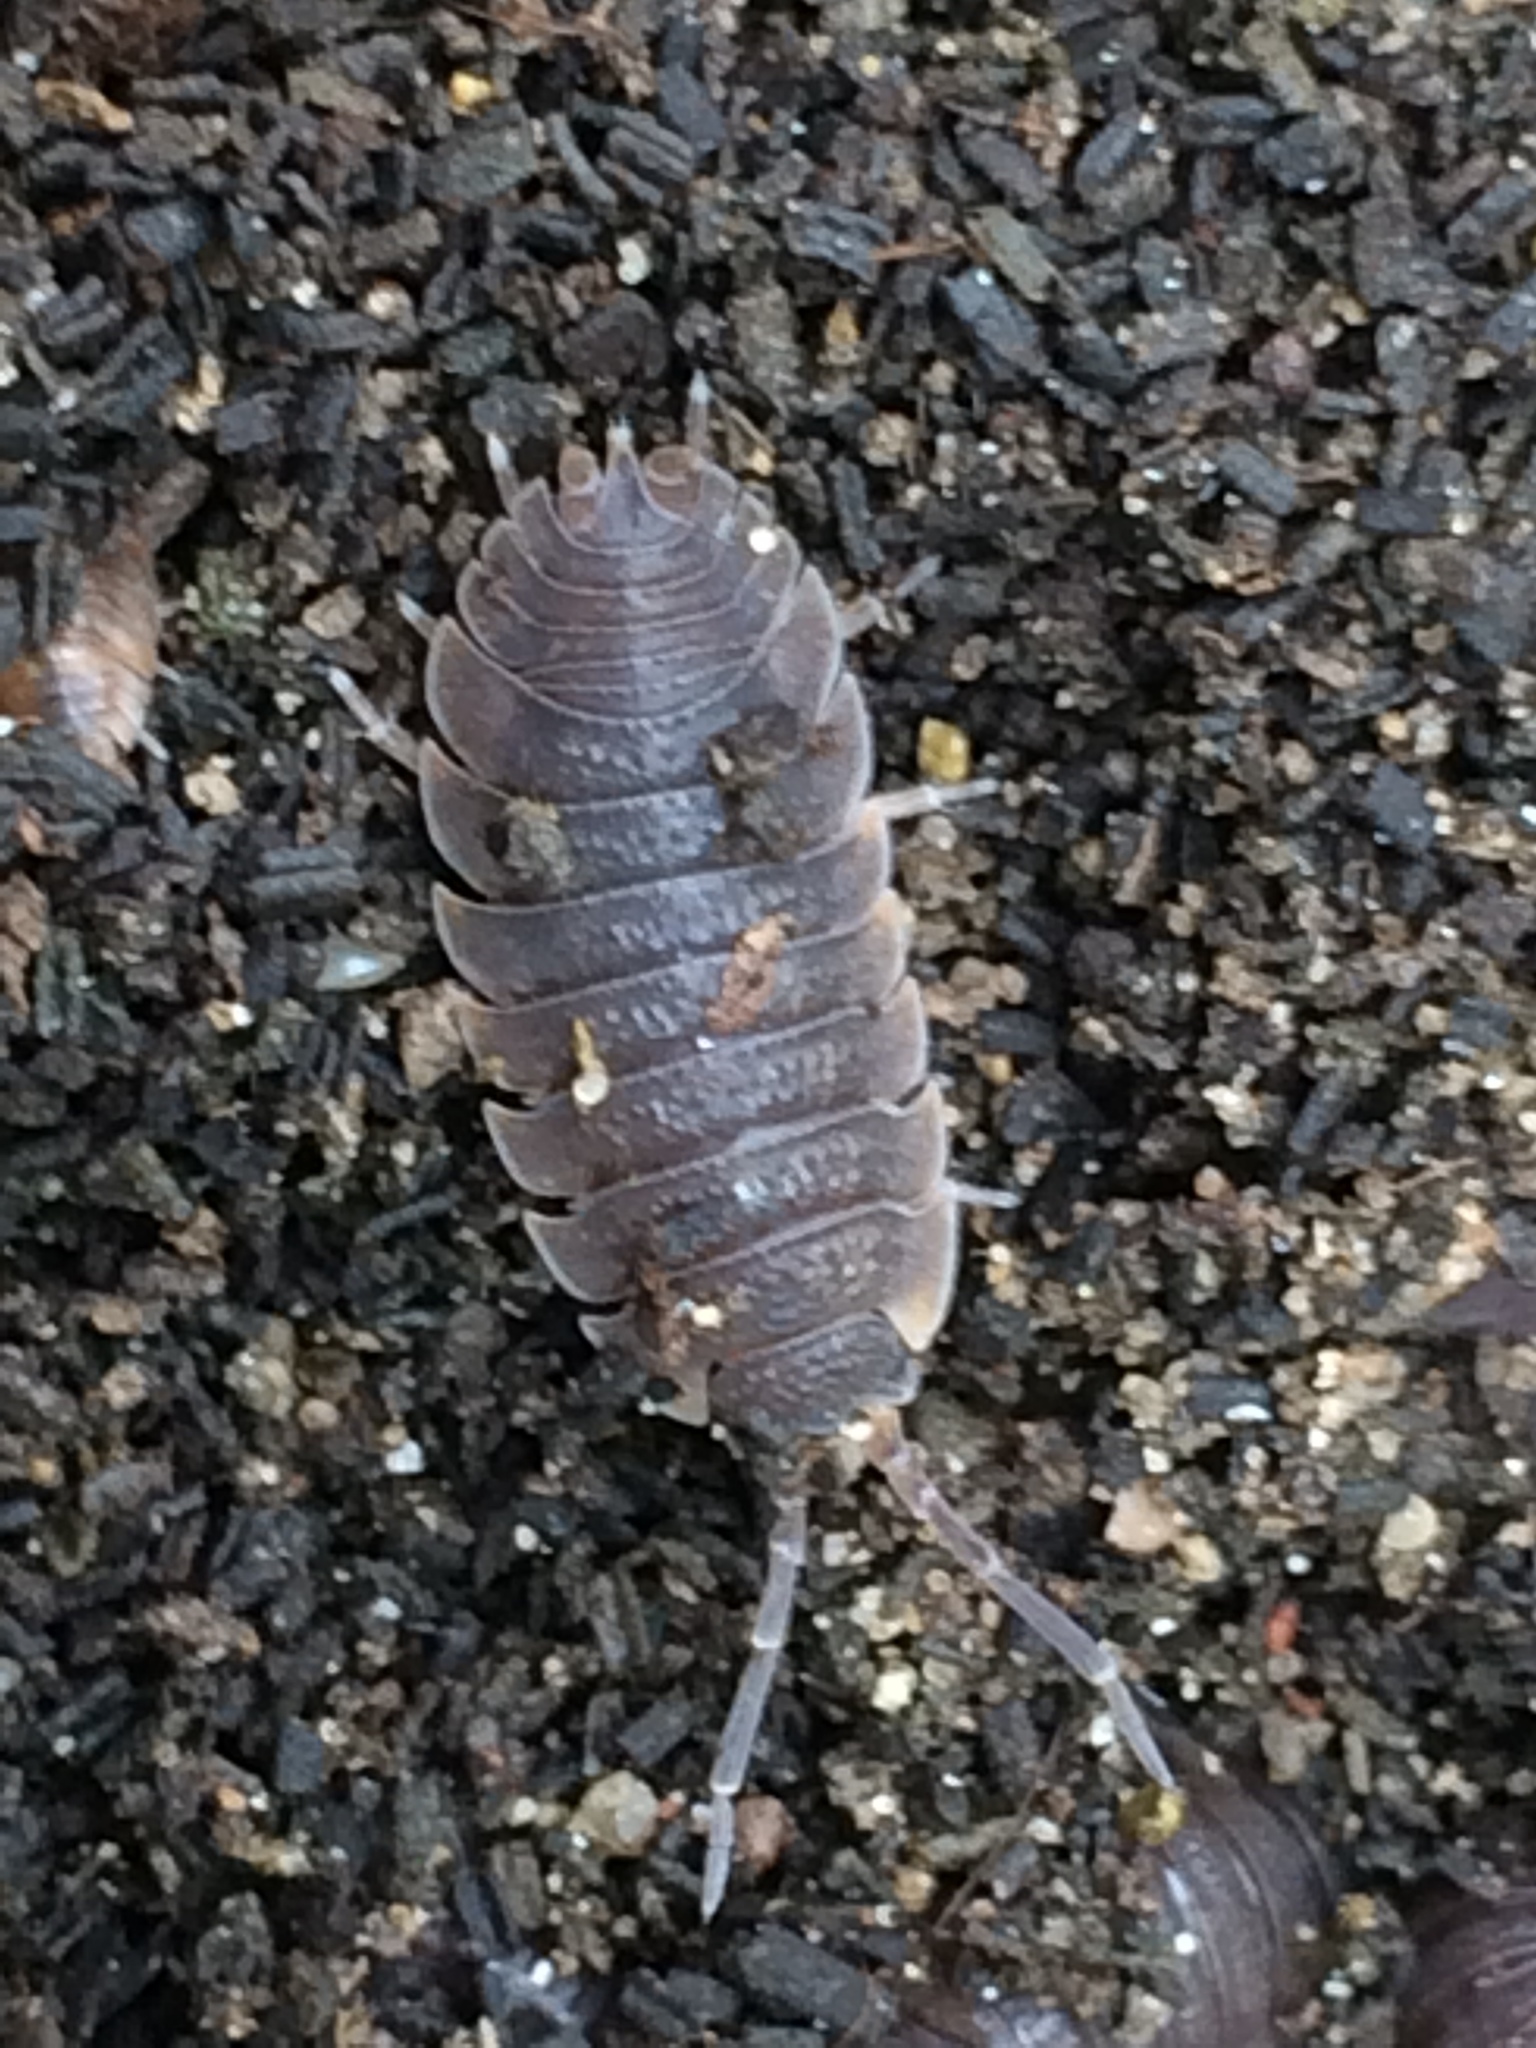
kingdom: Animalia
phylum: Arthropoda
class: Malacostraca
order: Isopoda
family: Porcellionidae
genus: Porcellio
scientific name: Porcellio scaber
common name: Common rough woodlouse
